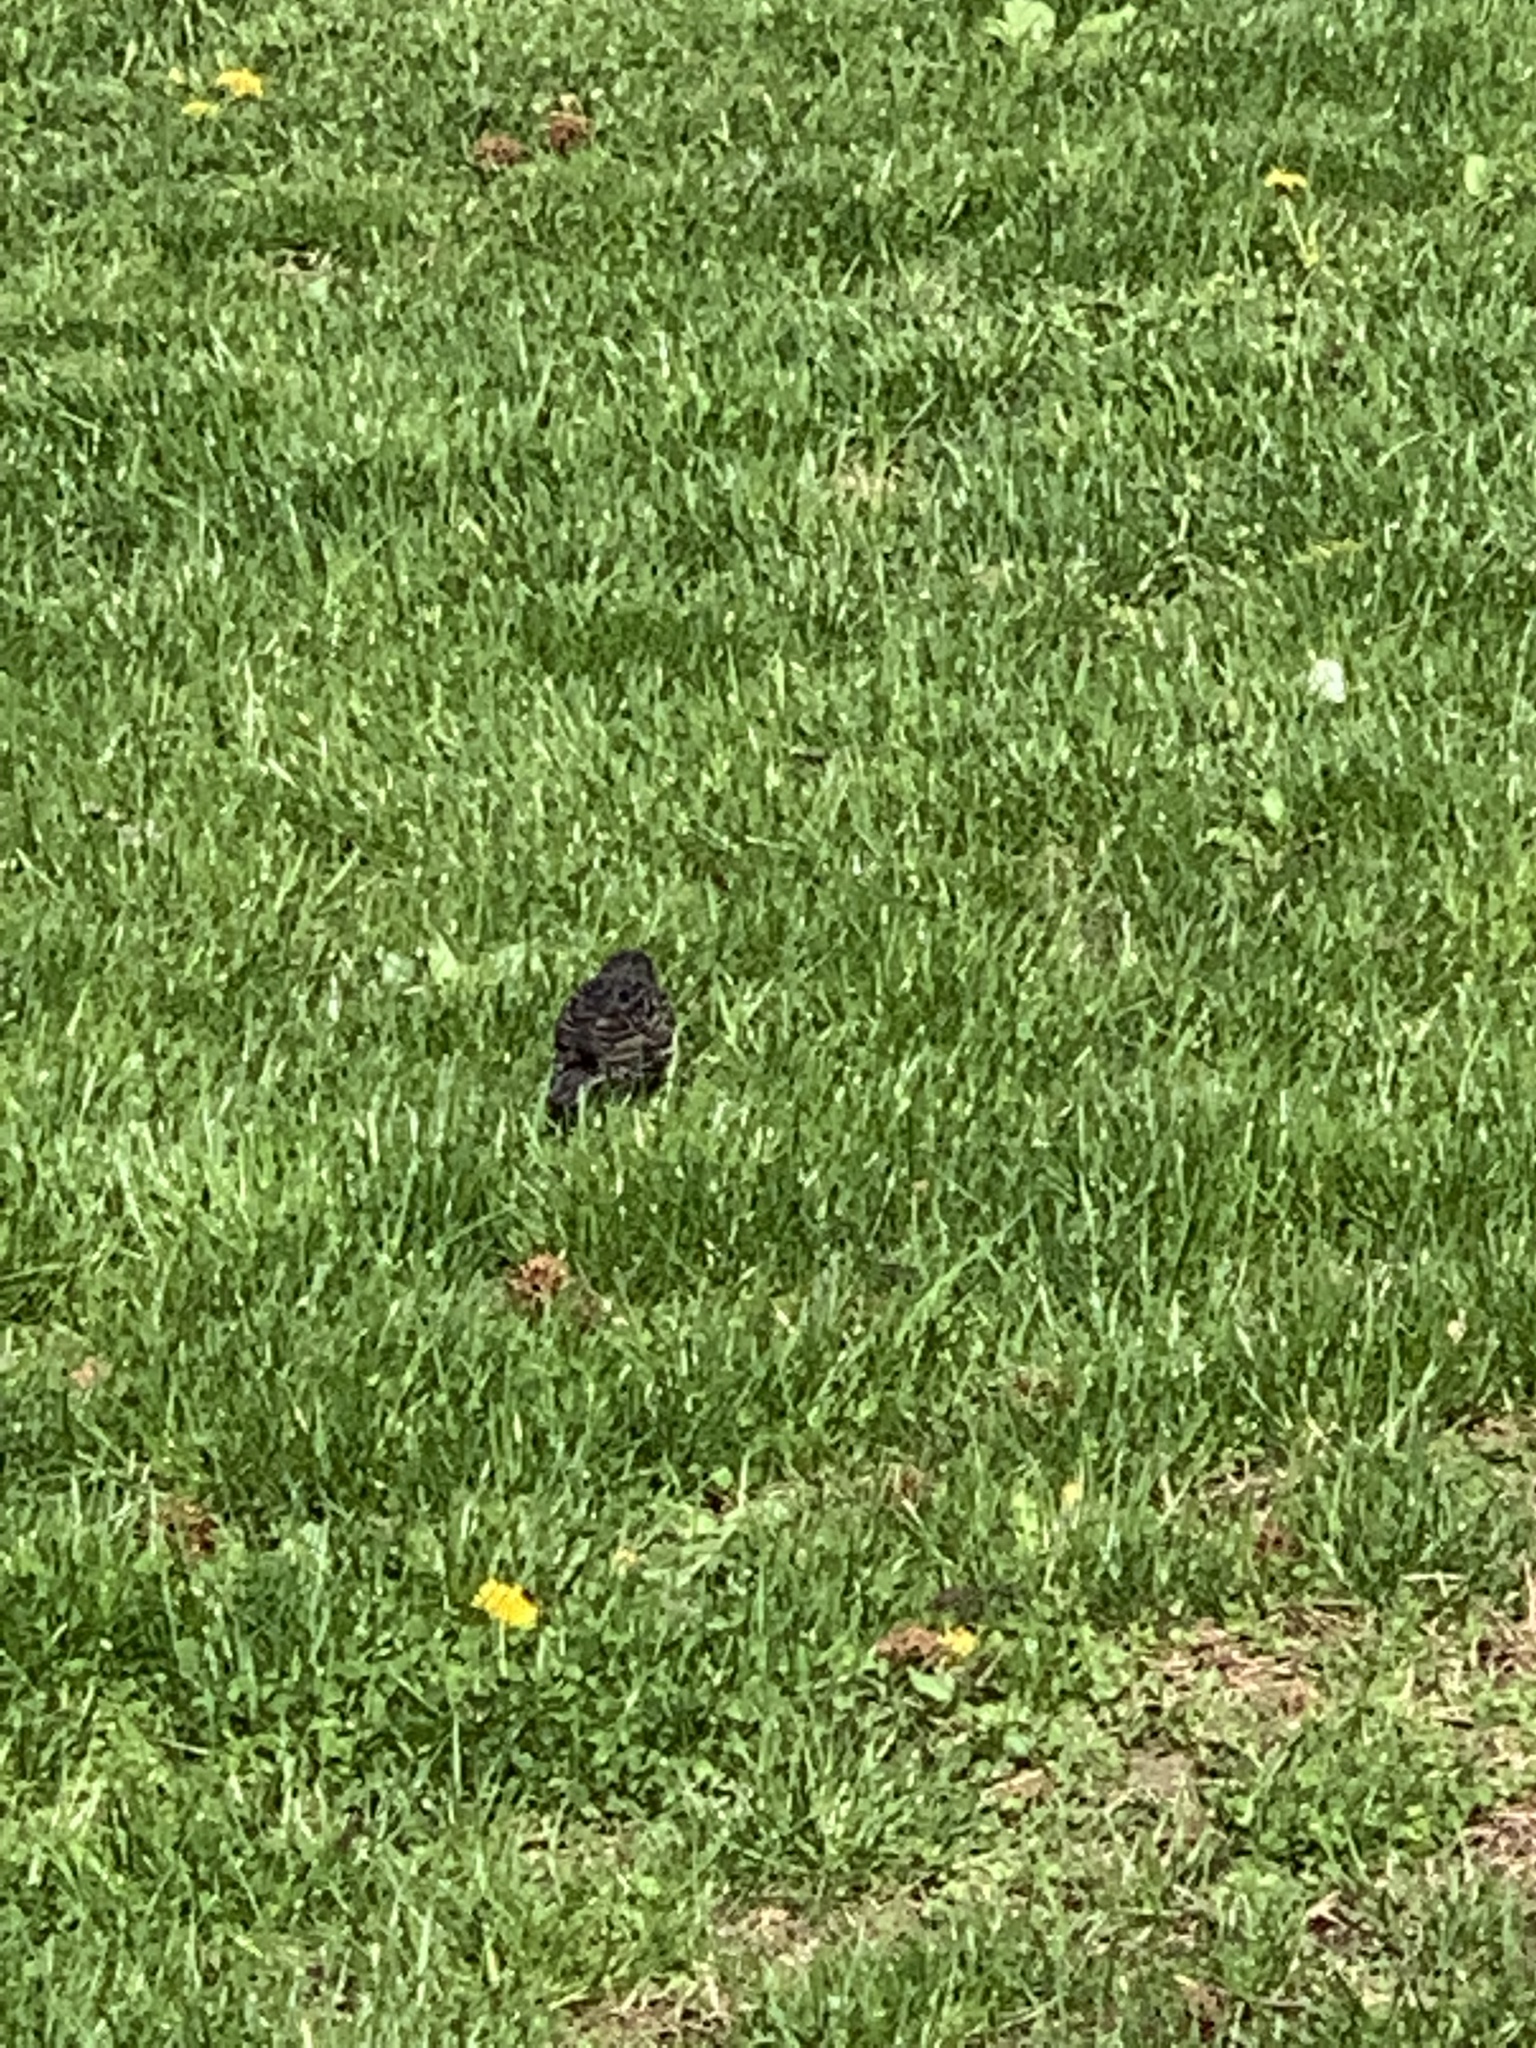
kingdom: Animalia
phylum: Chordata
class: Aves
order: Passeriformes
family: Sturnidae
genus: Sturnus
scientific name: Sturnus vulgaris
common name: Common starling
